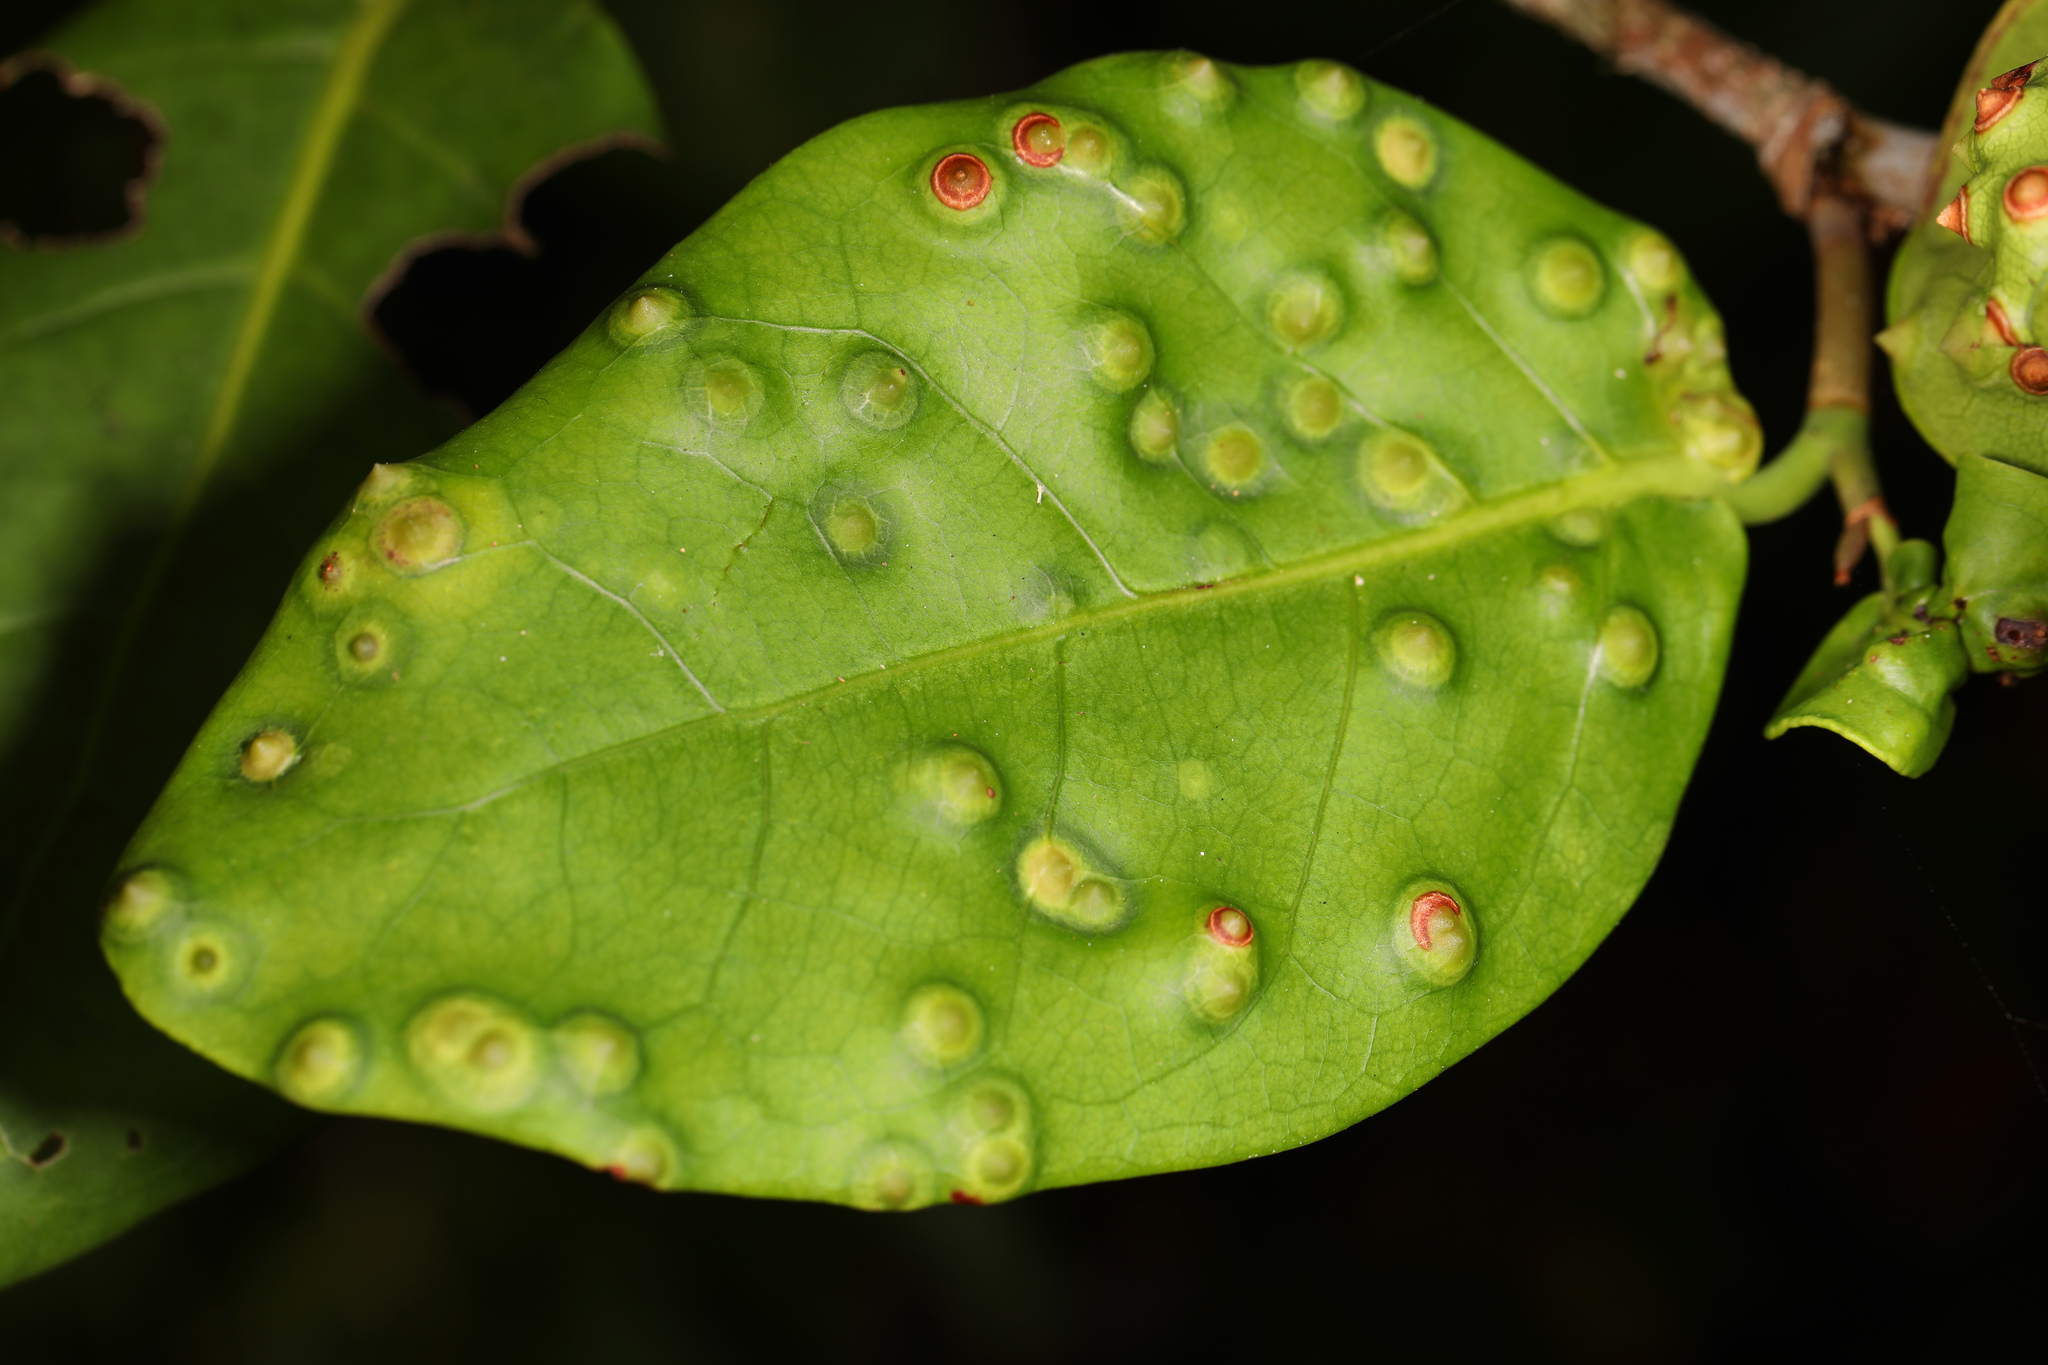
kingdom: Animalia
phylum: Arthropoda
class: Insecta
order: Diptera
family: Cecidomyiidae
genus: Ctenodactylomyia
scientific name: Ctenodactylomyia watsoni
